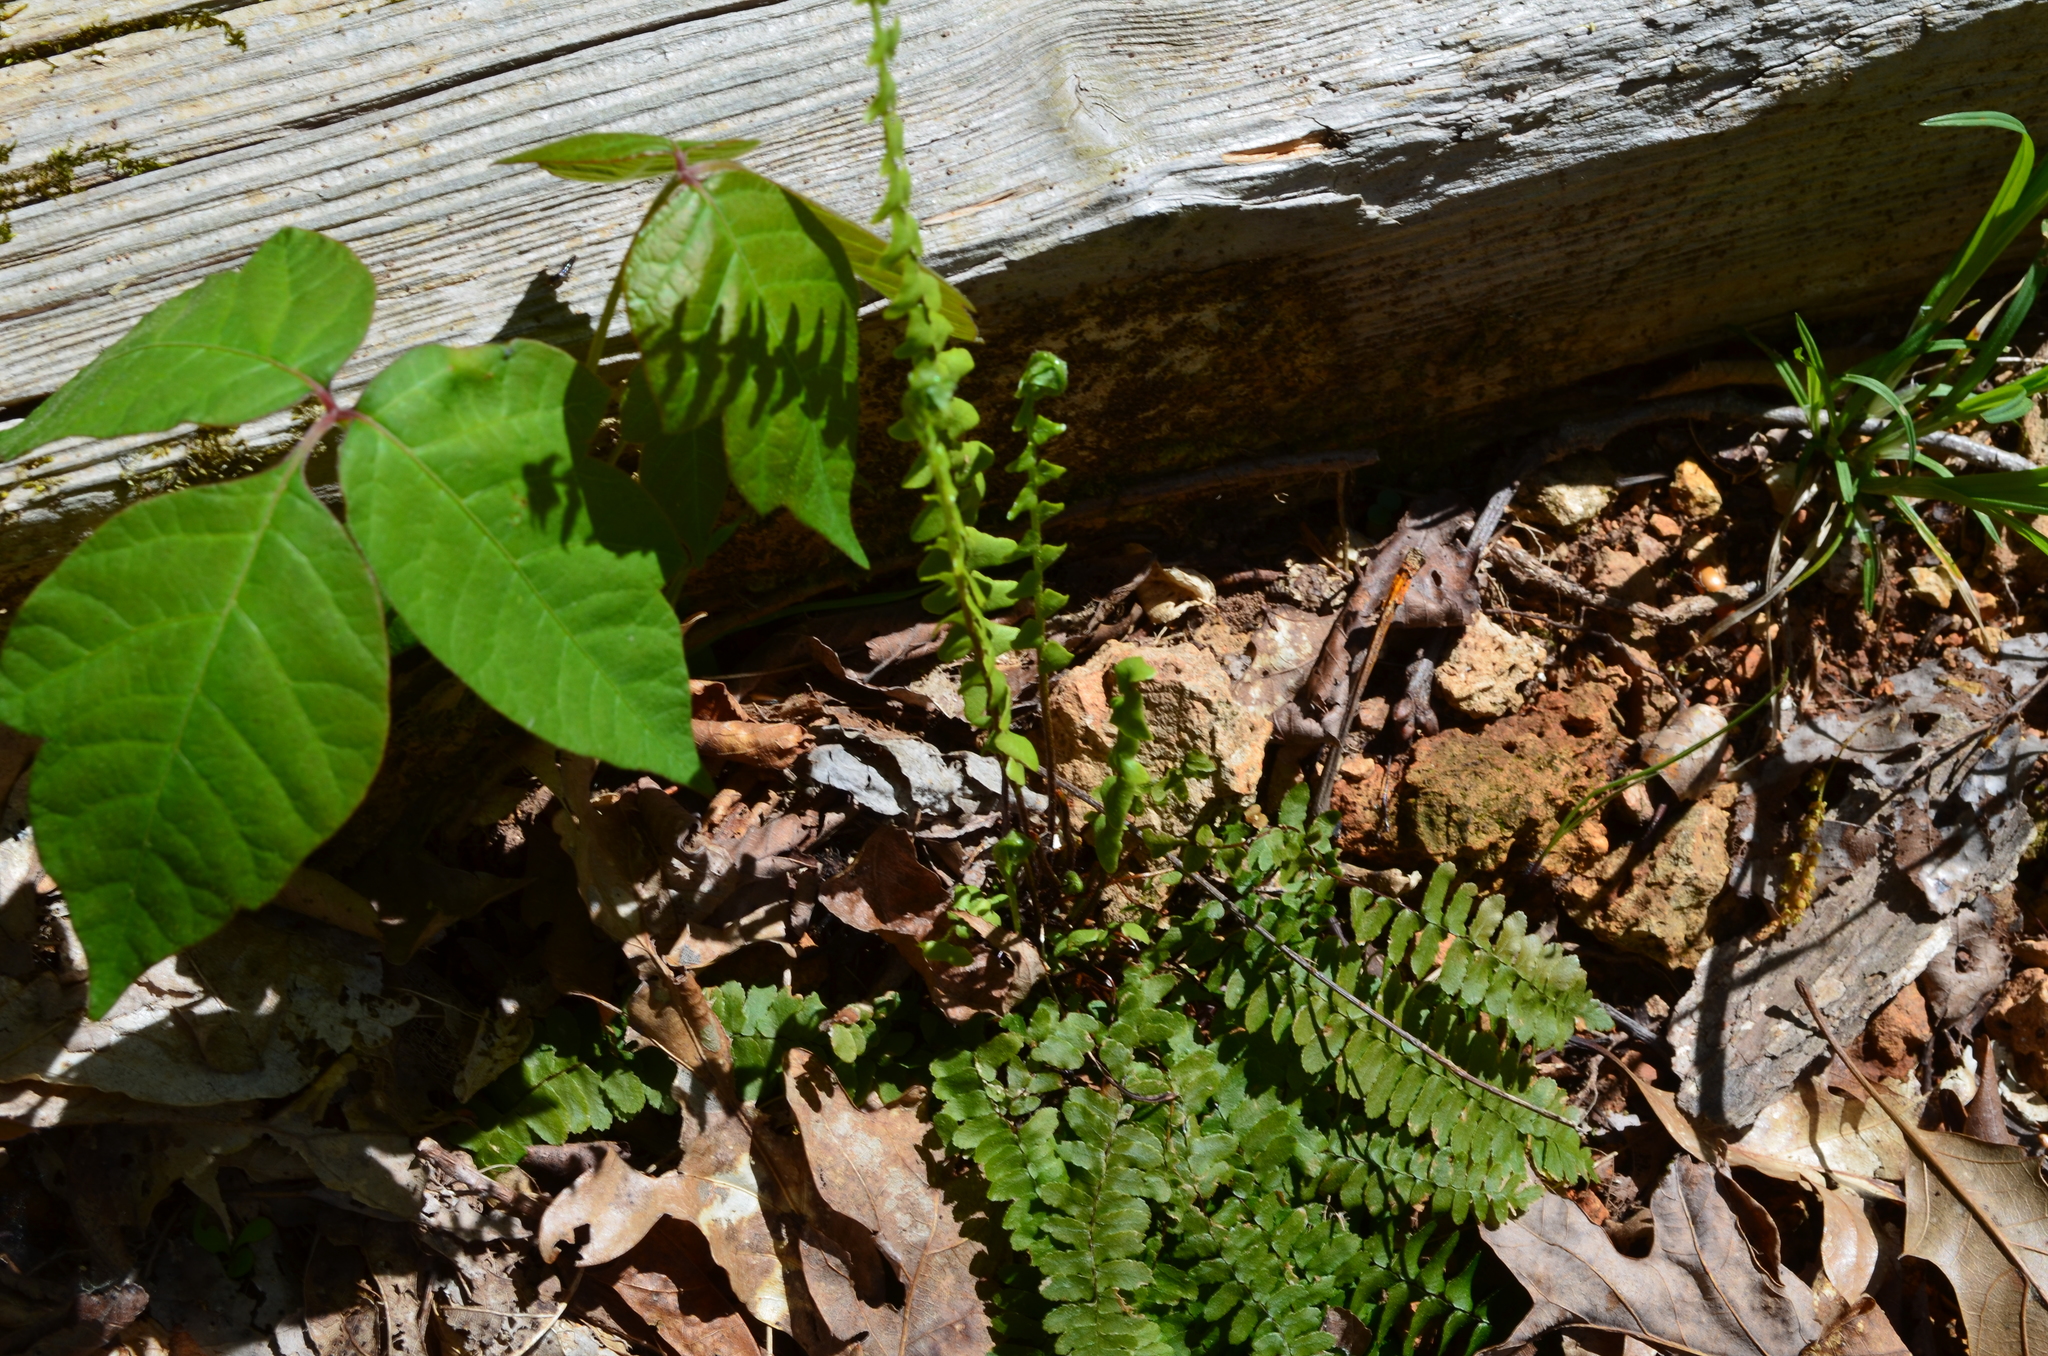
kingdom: Plantae
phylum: Tracheophyta
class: Polypodiopsida
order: Polypodiales
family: Aspleniaceae
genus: Asplenium
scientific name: Asplenium platyneuron
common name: Ebony spleenwort
